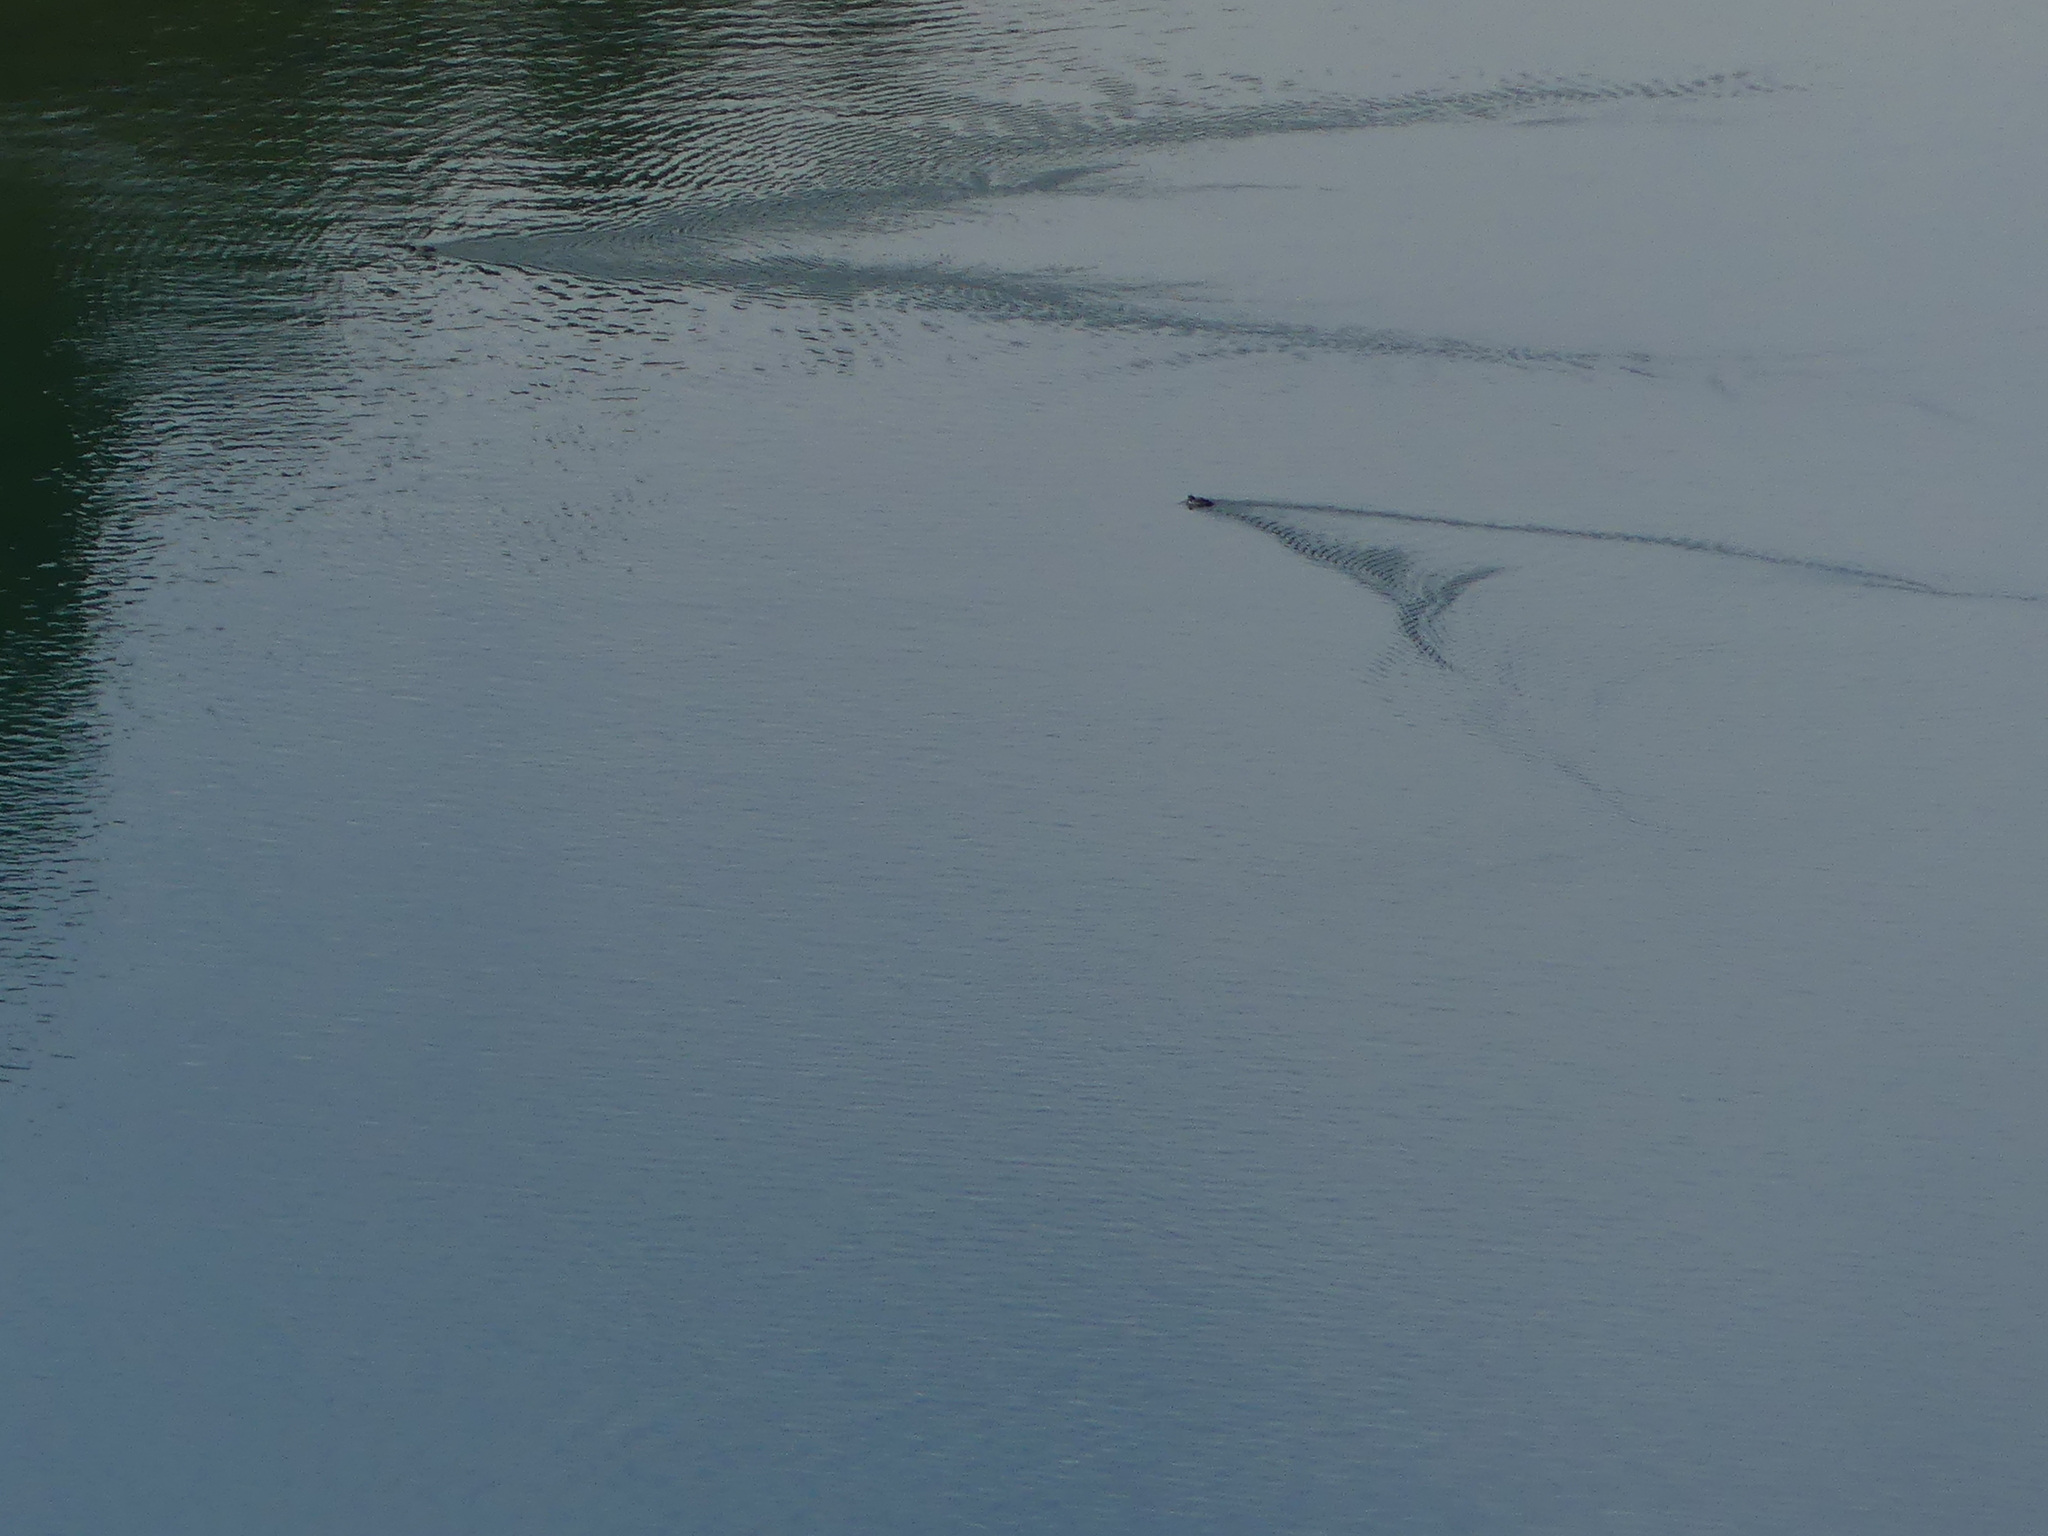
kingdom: Animalia
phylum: Chordata
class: Aves
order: Anseriformes
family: Anatidae
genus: Bucephala
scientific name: Bucephala albeola
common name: Bufflehead
